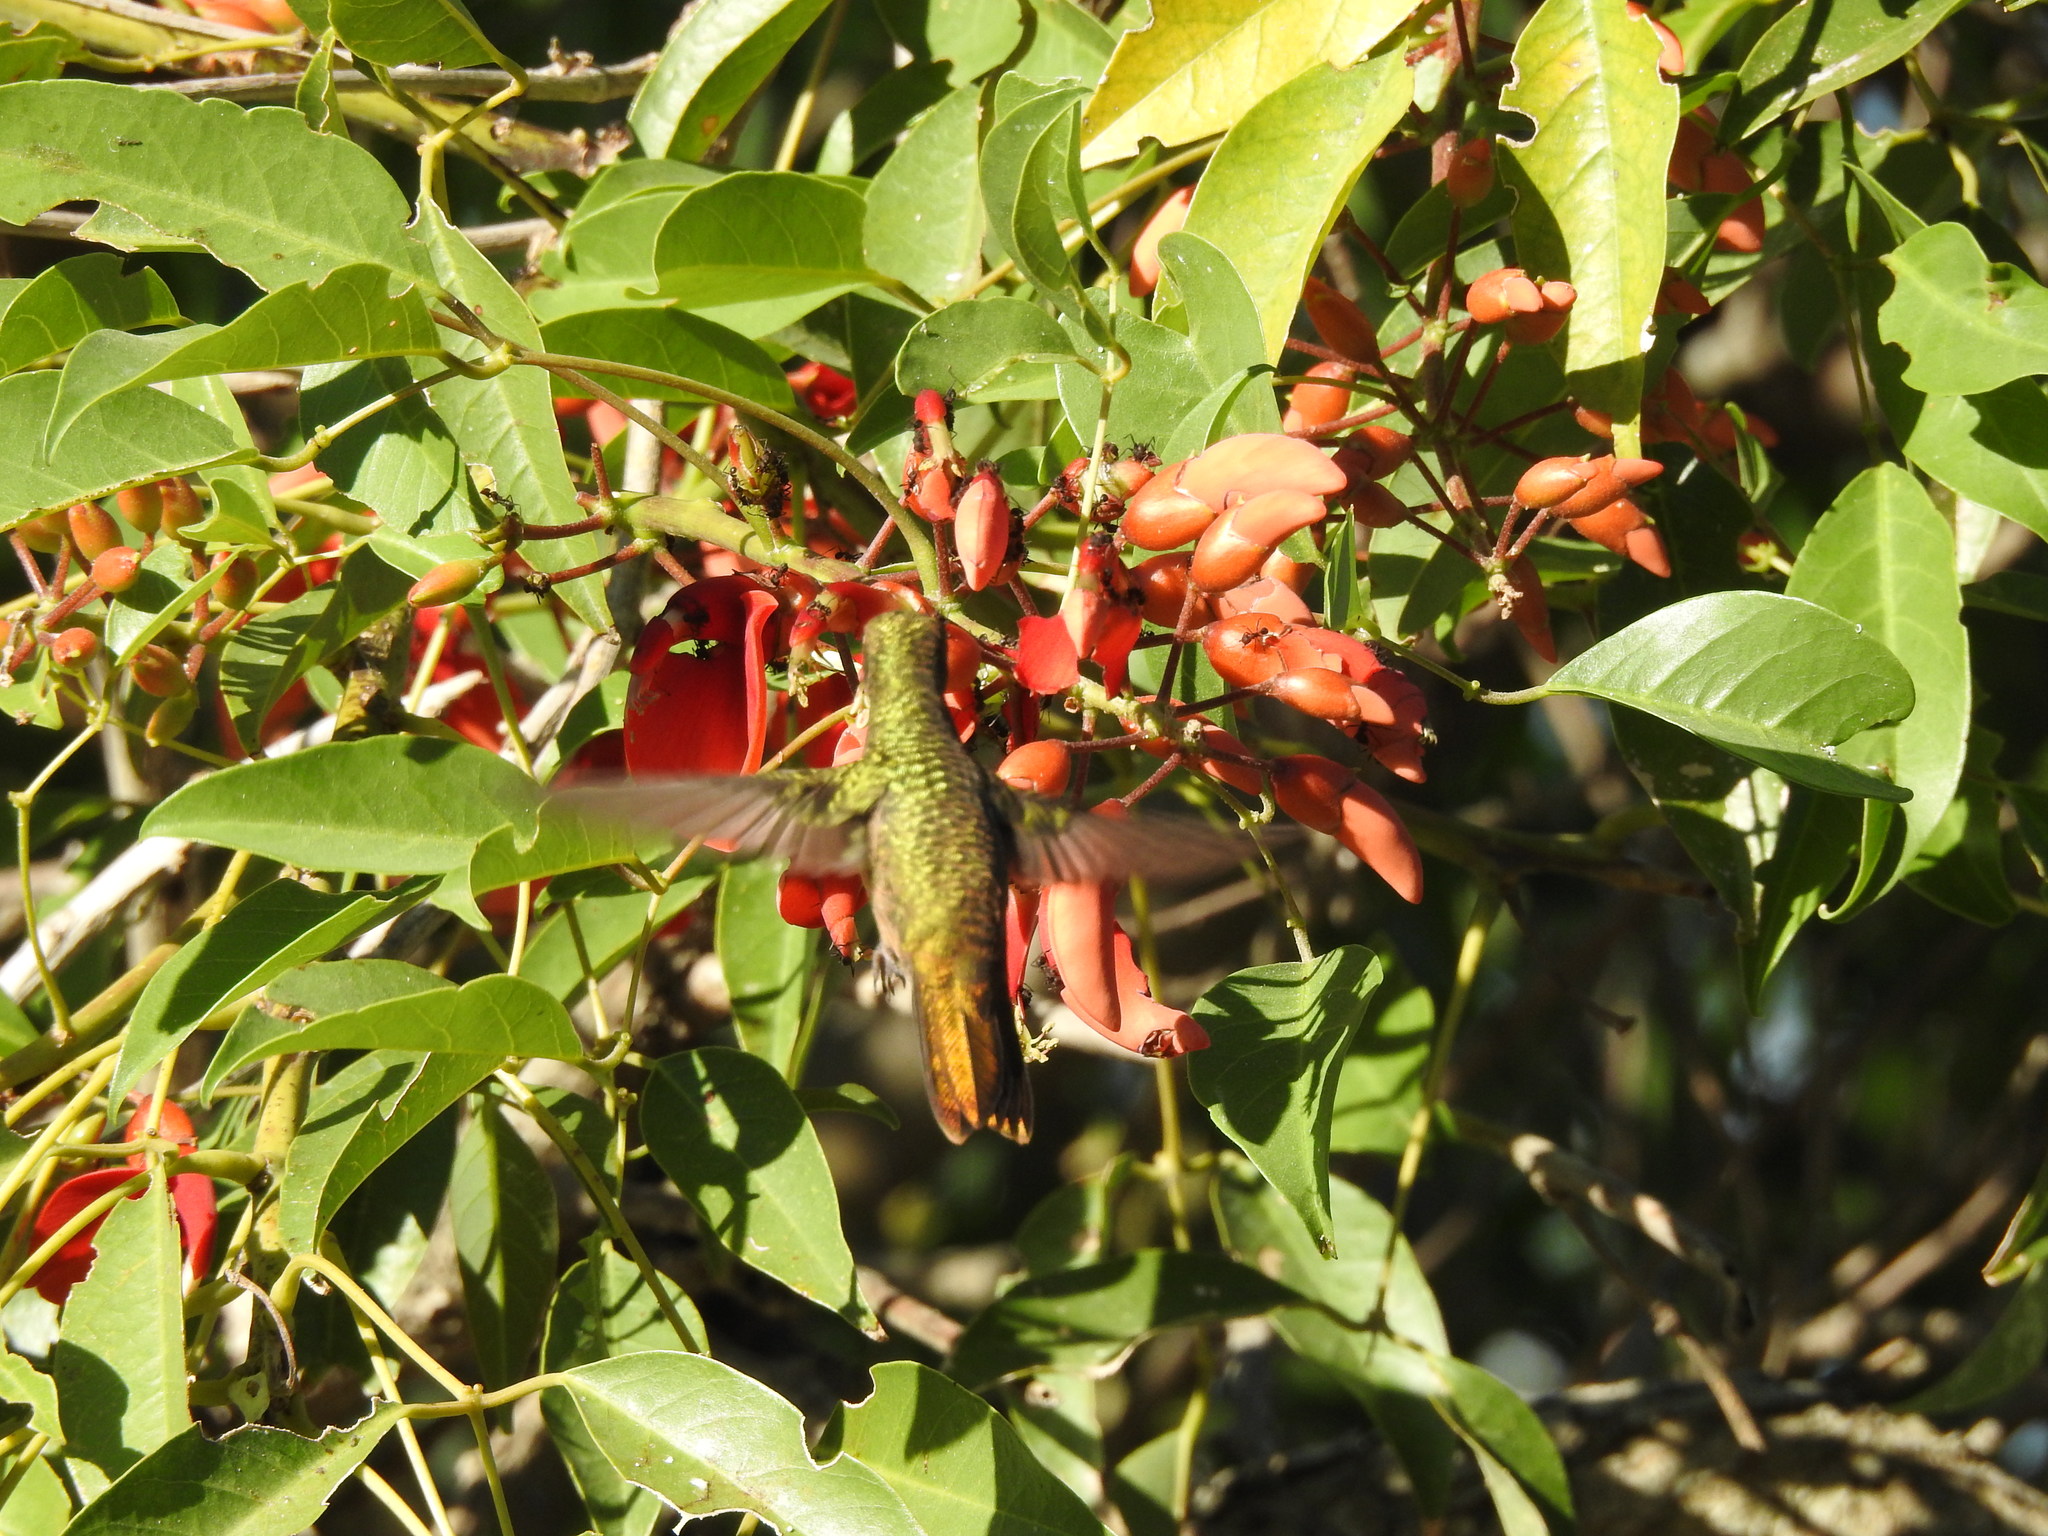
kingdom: Animalia
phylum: Chordata
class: Aves
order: Apodiformes
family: Trochilidae
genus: Hylocharis
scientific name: Hylocharis chrysura
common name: Gilded sapphire
